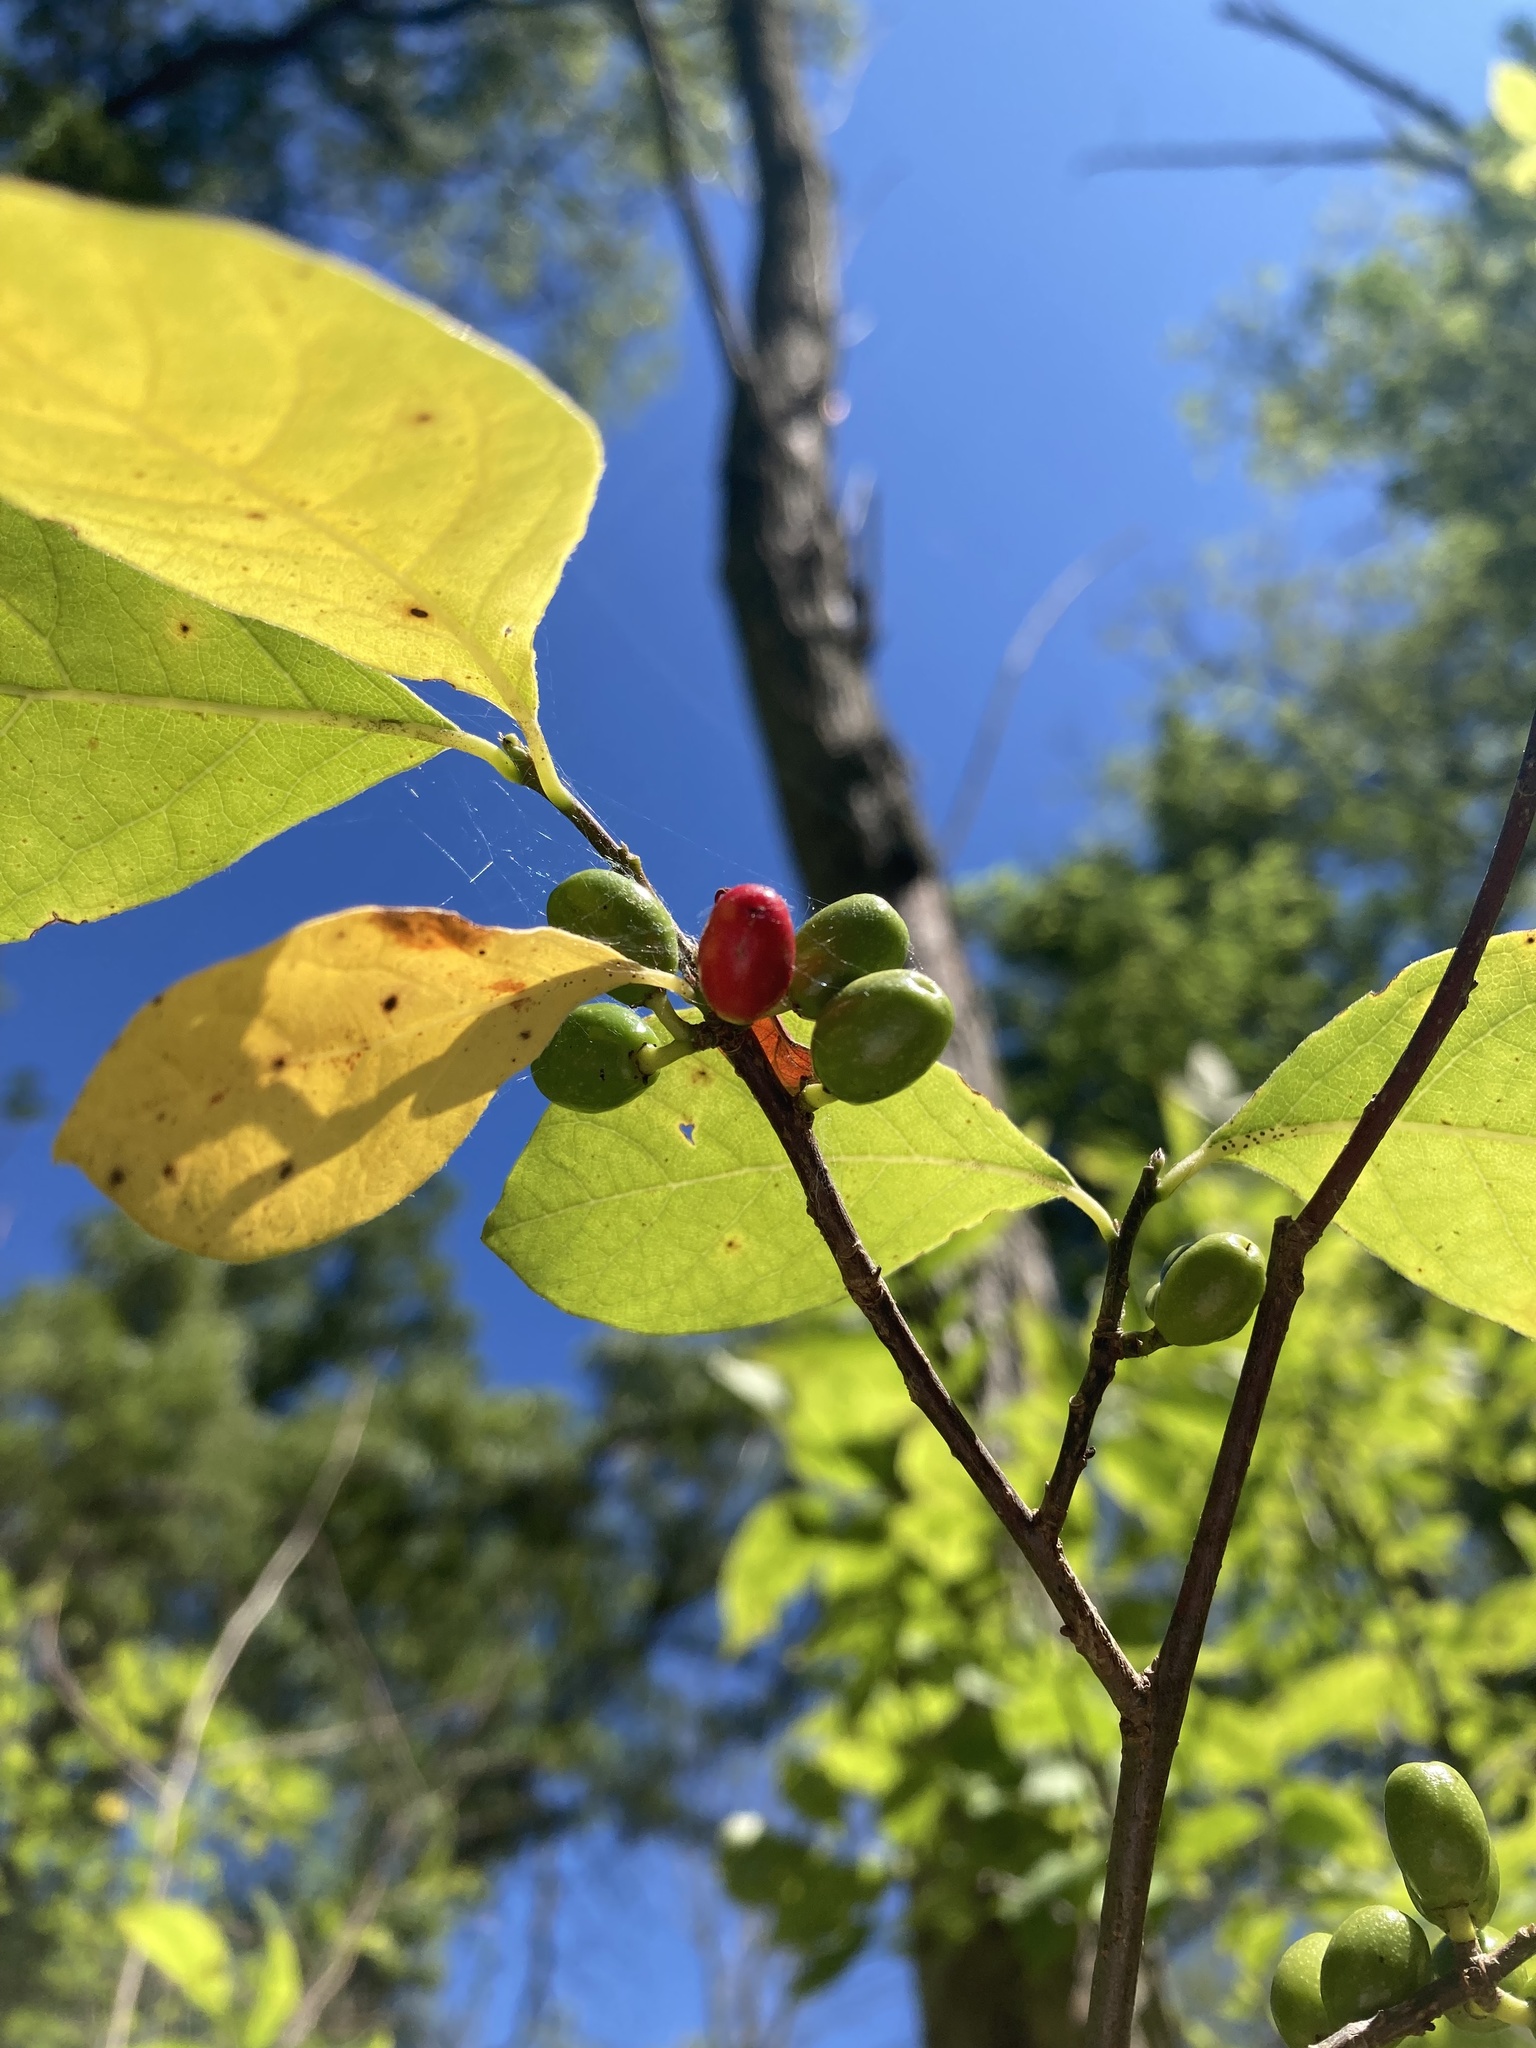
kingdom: Plantae
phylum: Tracheophyta
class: Magnoliopsida
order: Laurales
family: Lauraceae
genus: Lindera
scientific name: Lindera benzoin
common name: Spicebush
